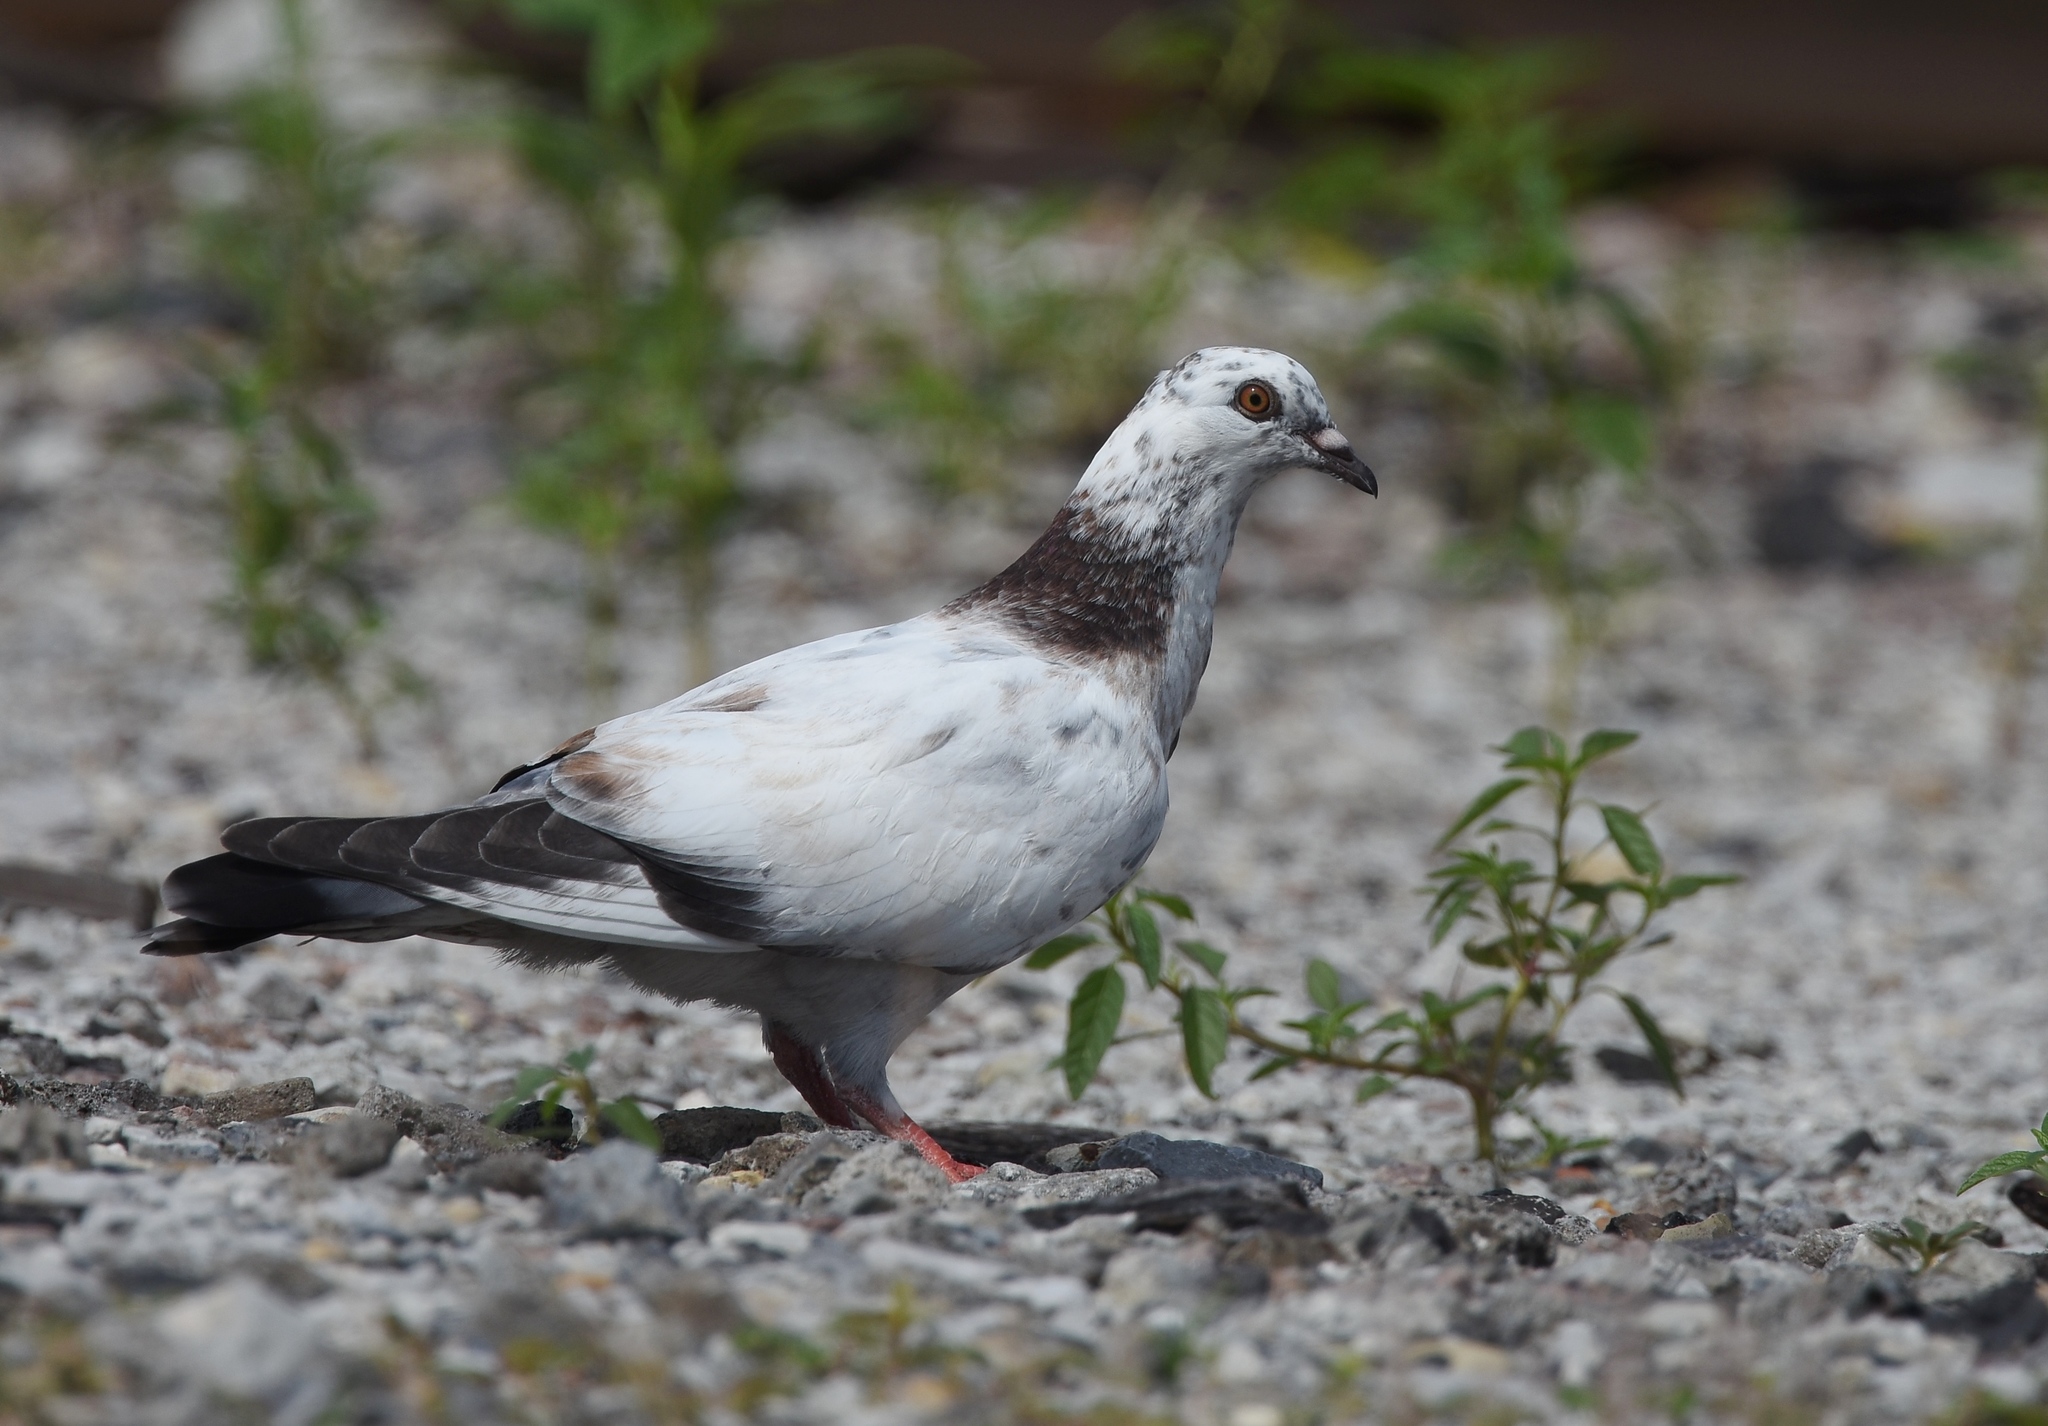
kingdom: Animalia
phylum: Chordata
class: Aves
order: Columbiformes
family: Columbidae
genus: Columba
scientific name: Columba livia
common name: Rock pigeon
